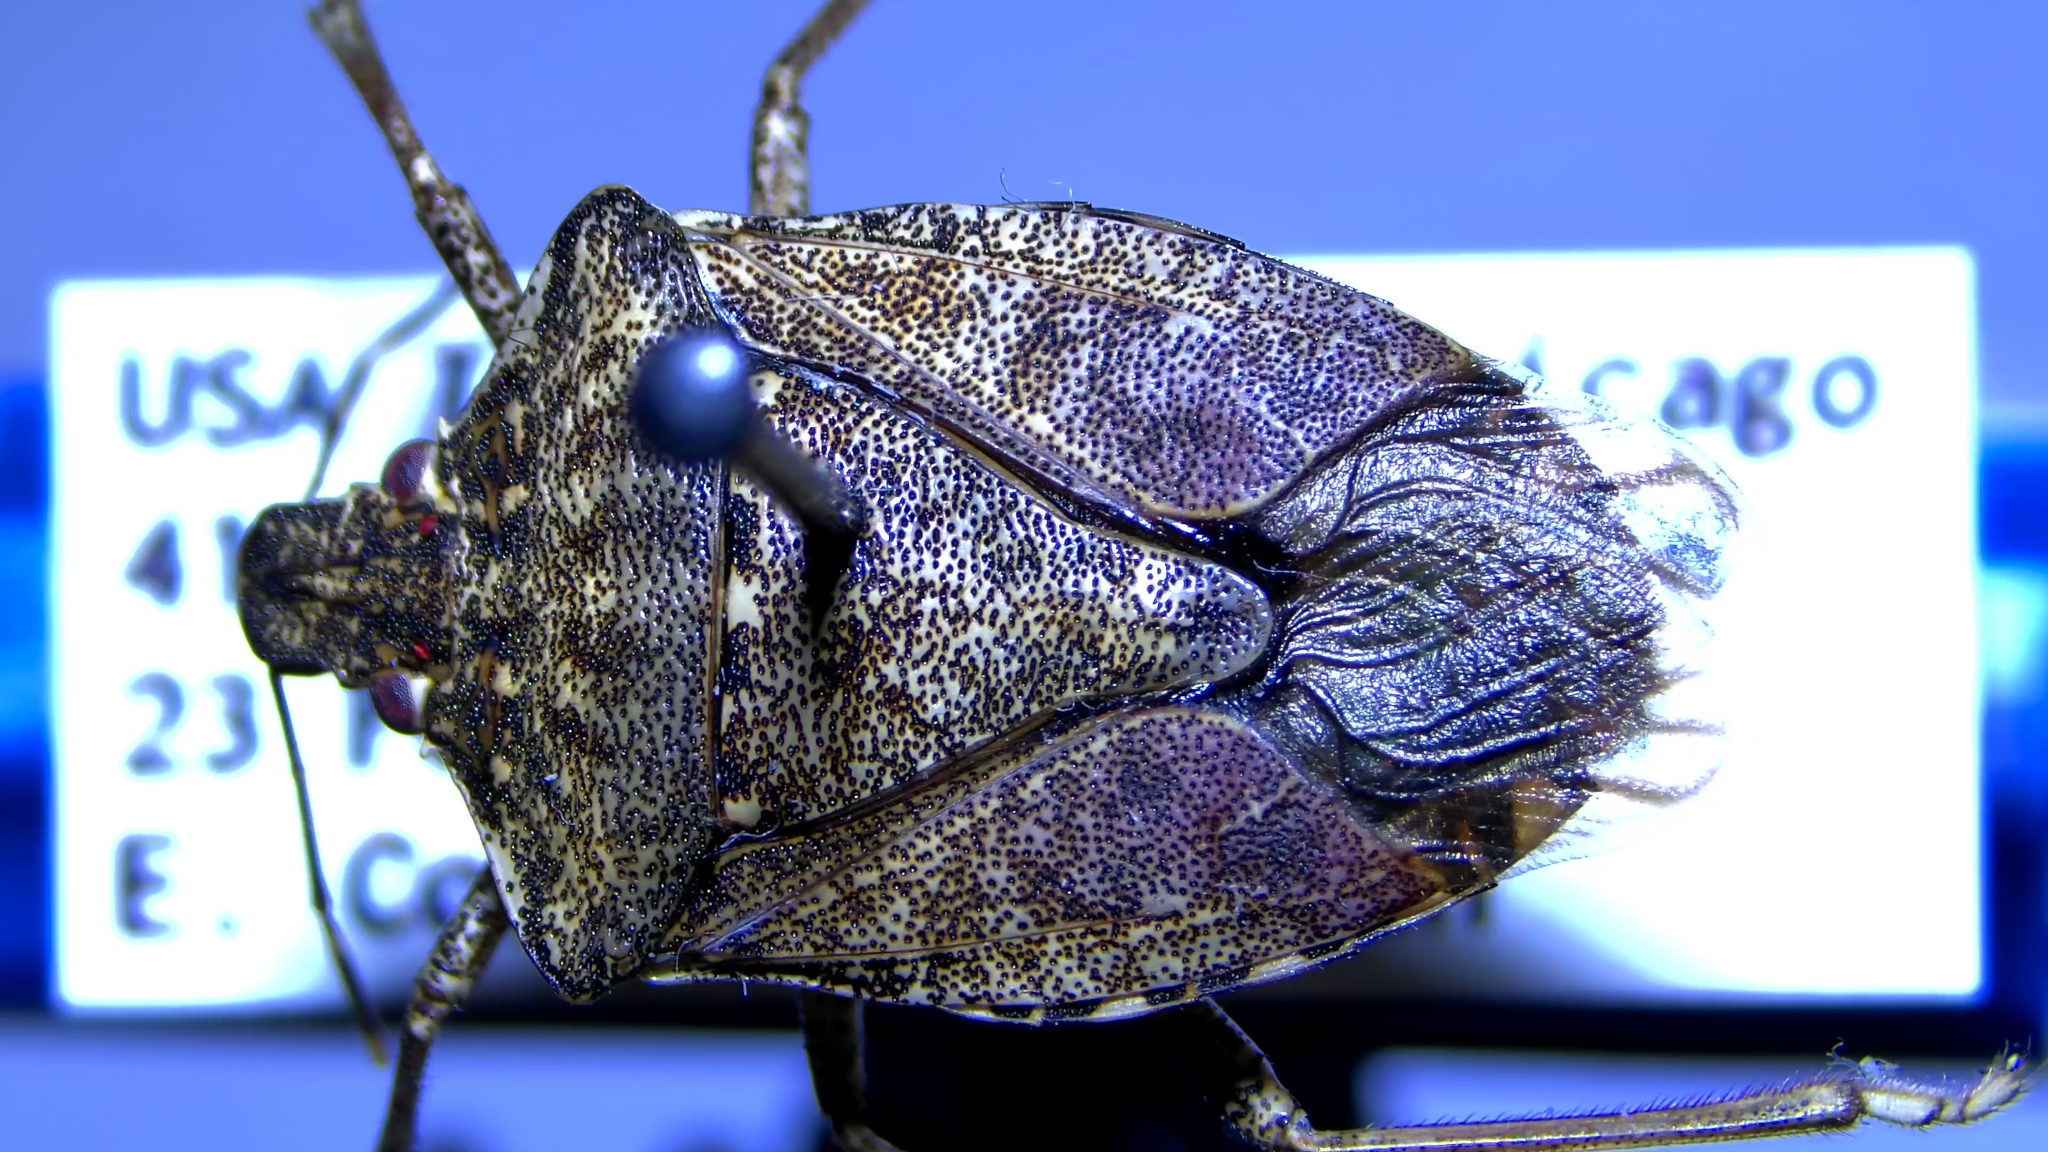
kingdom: Animalia
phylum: Arthropoda
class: Insecta
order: Hemiptera
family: Pentatomidae
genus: Halyomorpha
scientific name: Halyomorpha halys
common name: Brown marmorated stink bug
